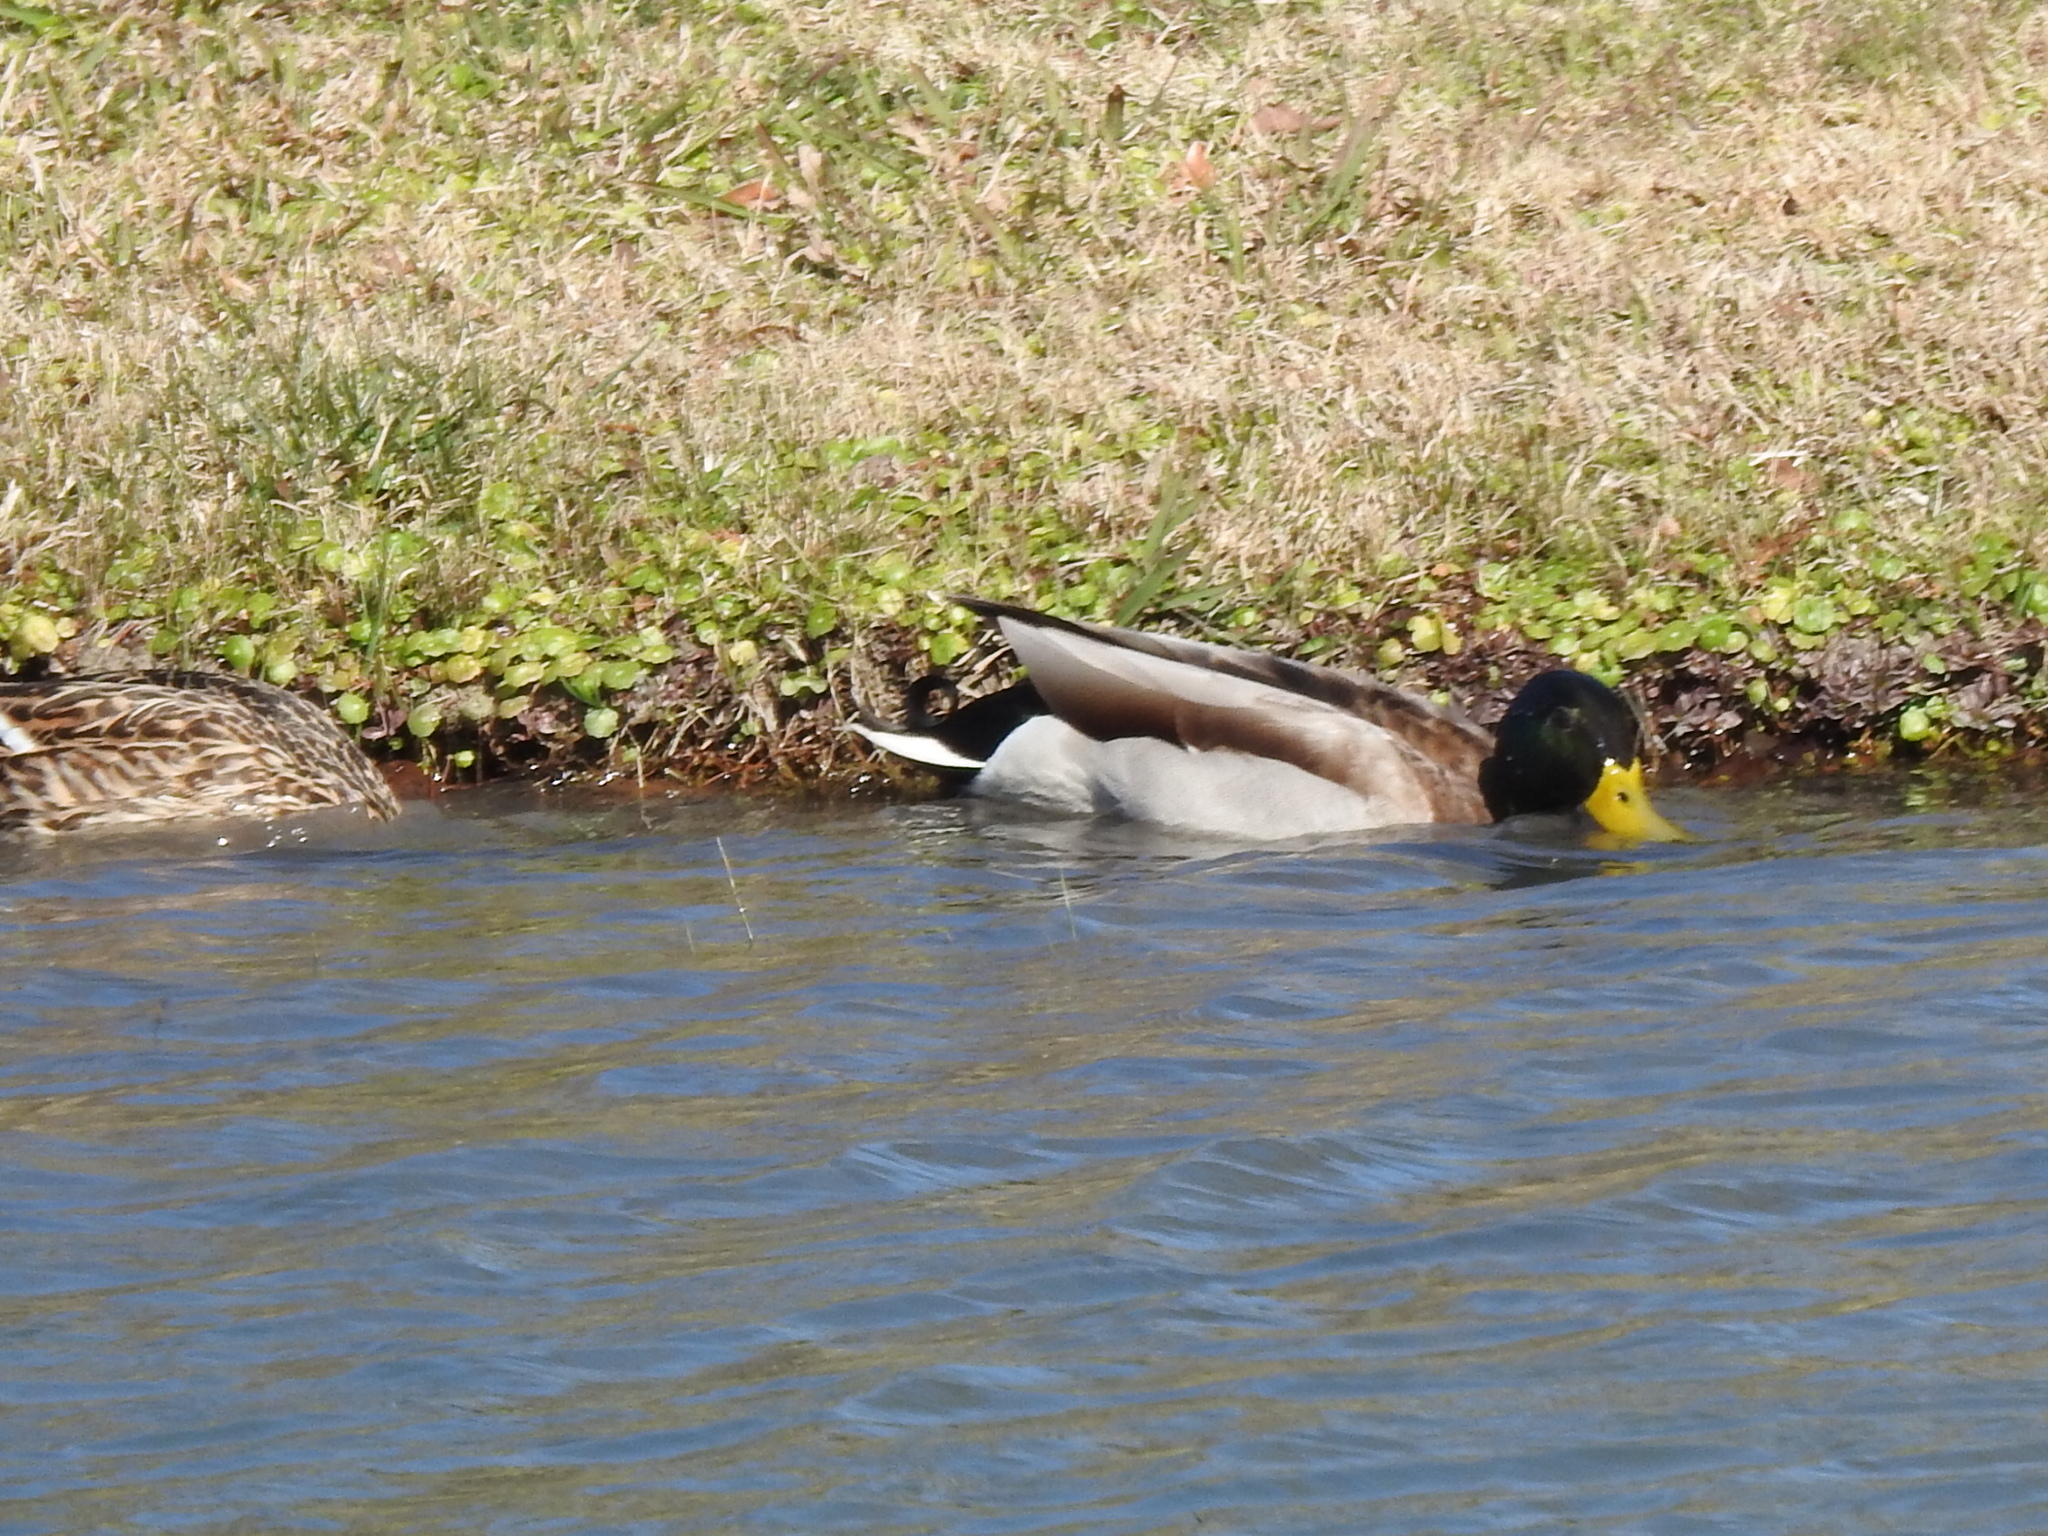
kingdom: Animalia
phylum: Chordata
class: Aves
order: Anseriformes
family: Anatidae
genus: Anas
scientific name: Anas platyrhynchos
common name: Mallard
